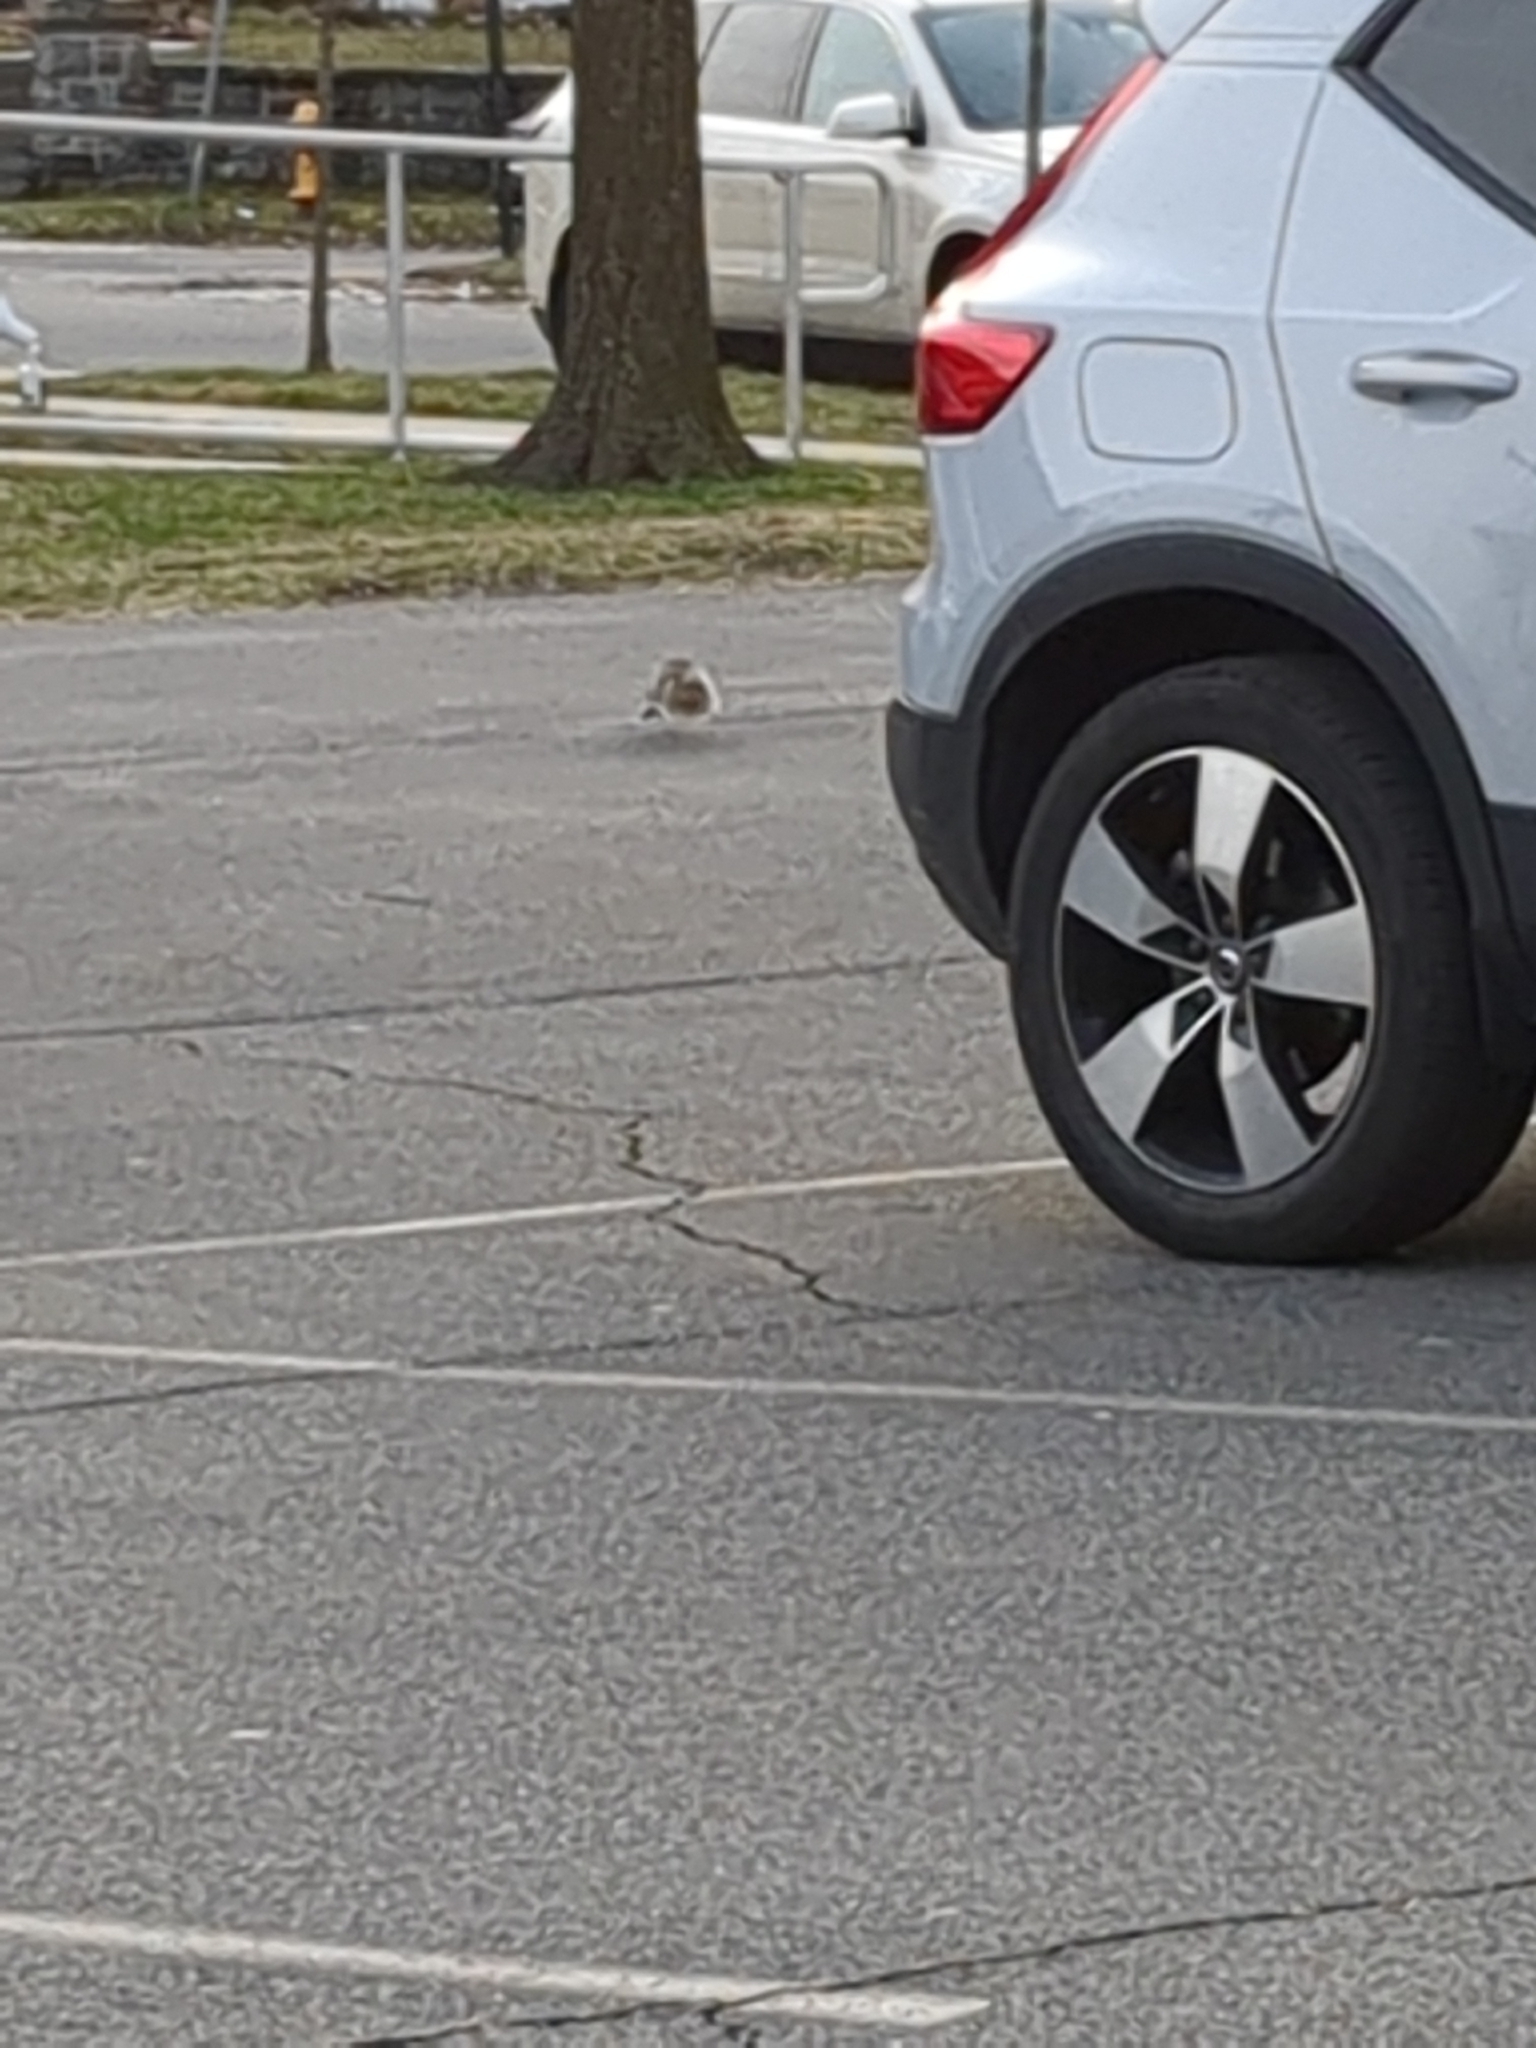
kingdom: Animalia
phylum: Chordata
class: Mammalia
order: Rodentia
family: Sciuridae
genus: Sciurus
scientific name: Sciurus carolinensis
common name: Eastern gray squirrel
